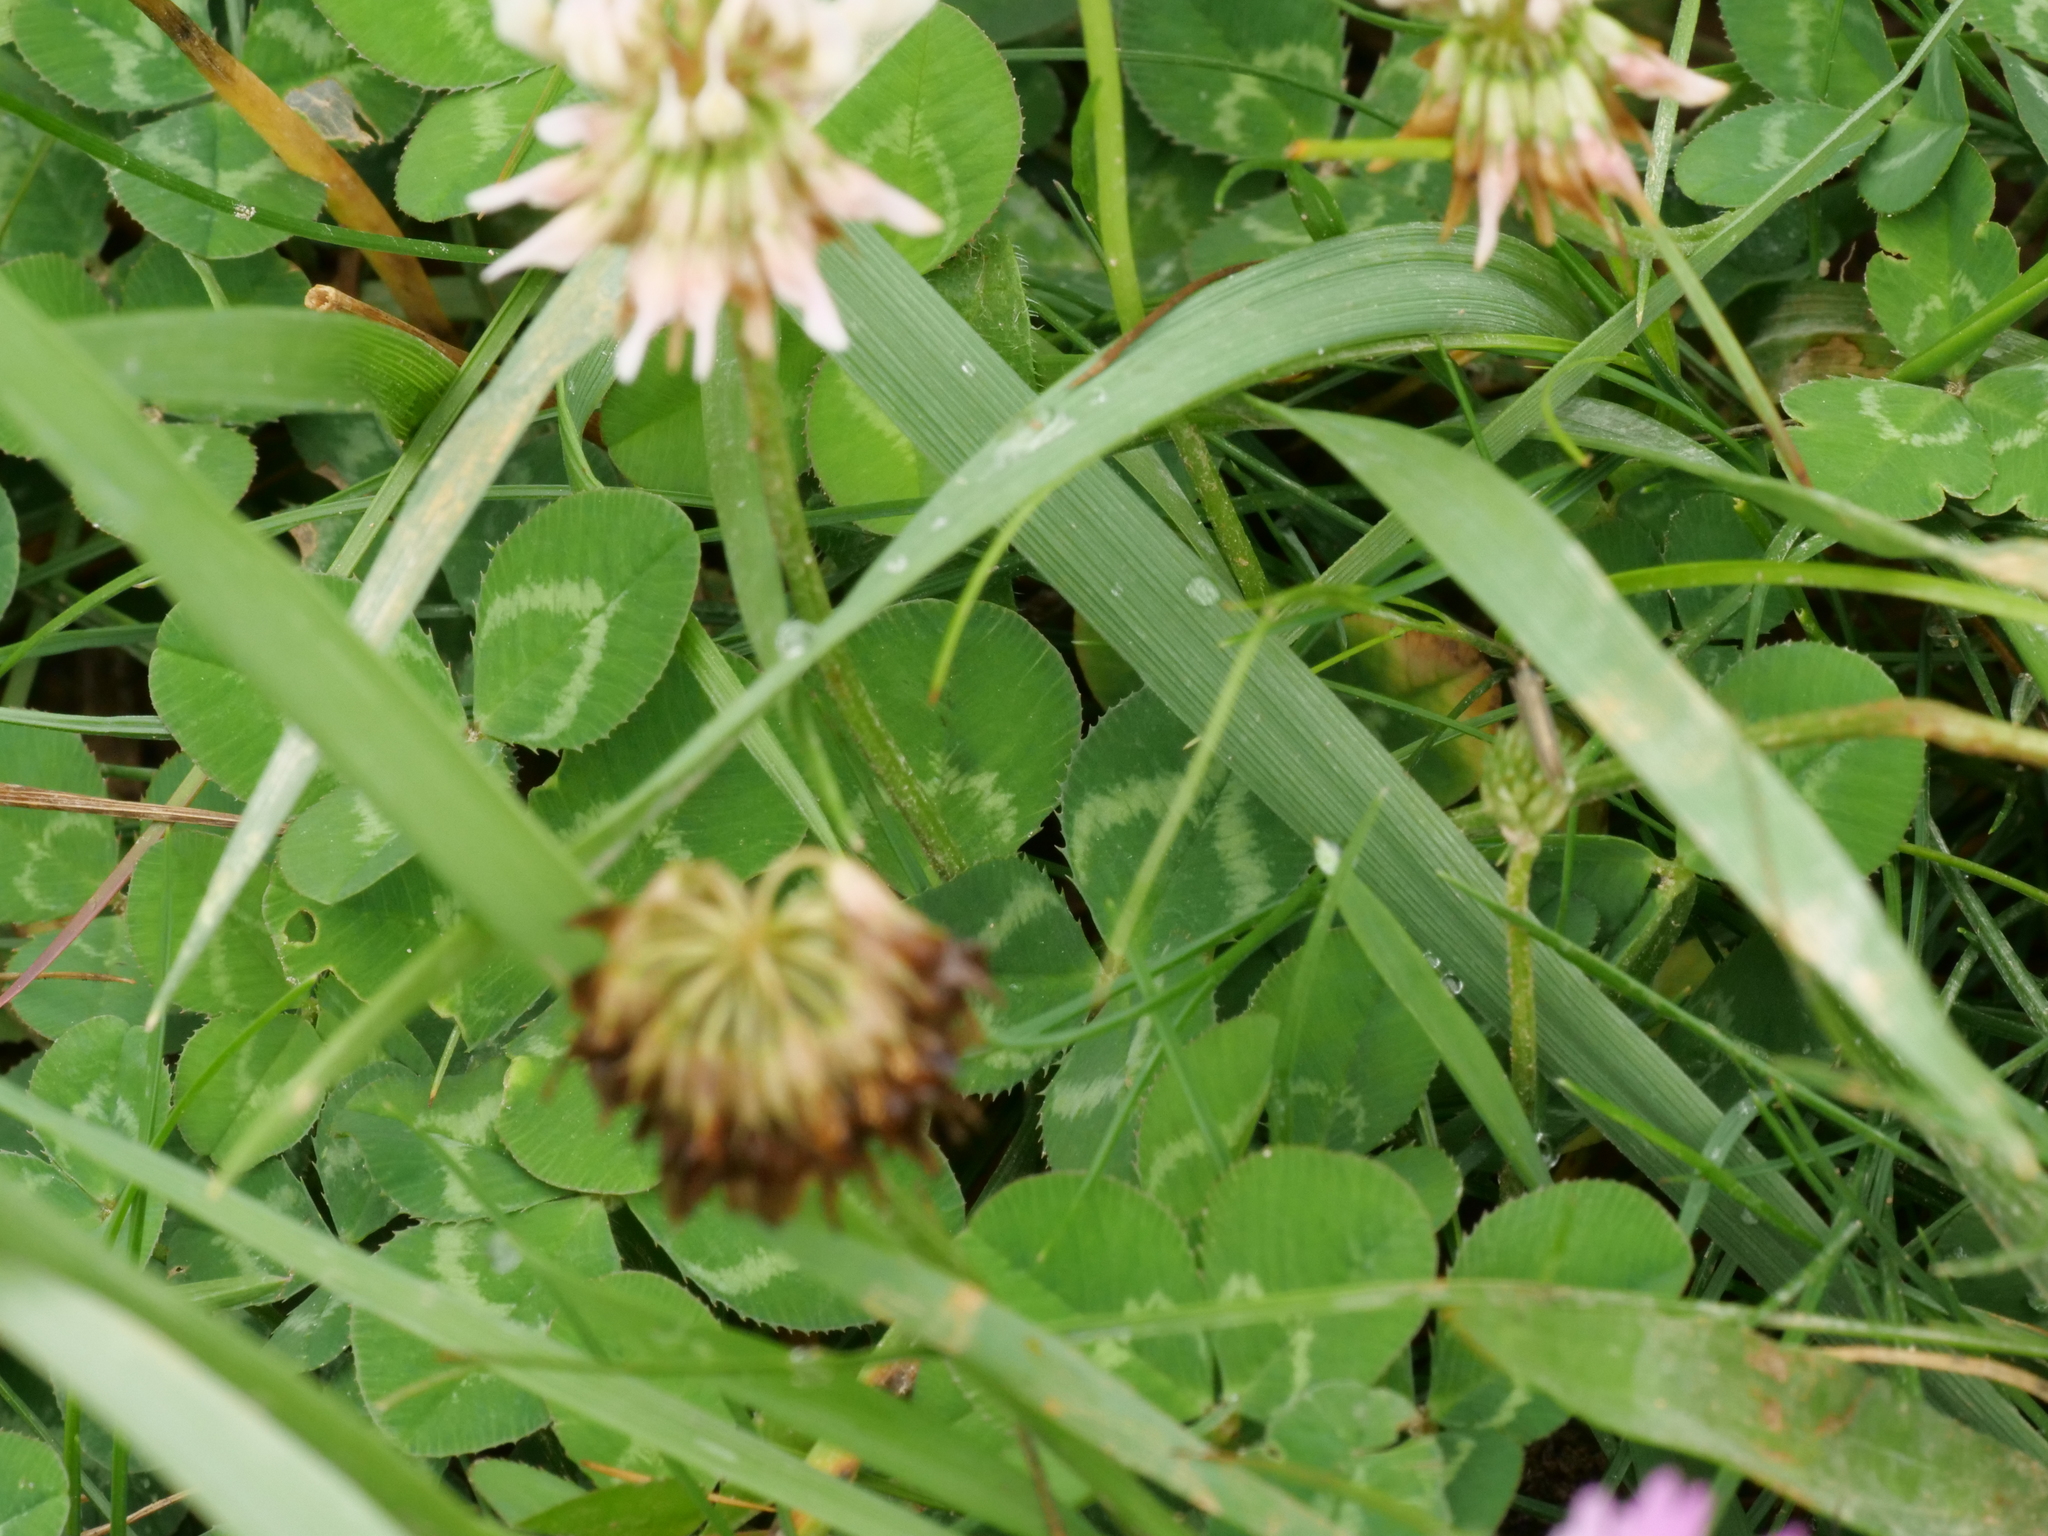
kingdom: Plantae
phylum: Tracheophyta
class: Magnoliopsida
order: Fabales
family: Fabaceae
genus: Trifolium
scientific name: Trifolium repens
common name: White clover
